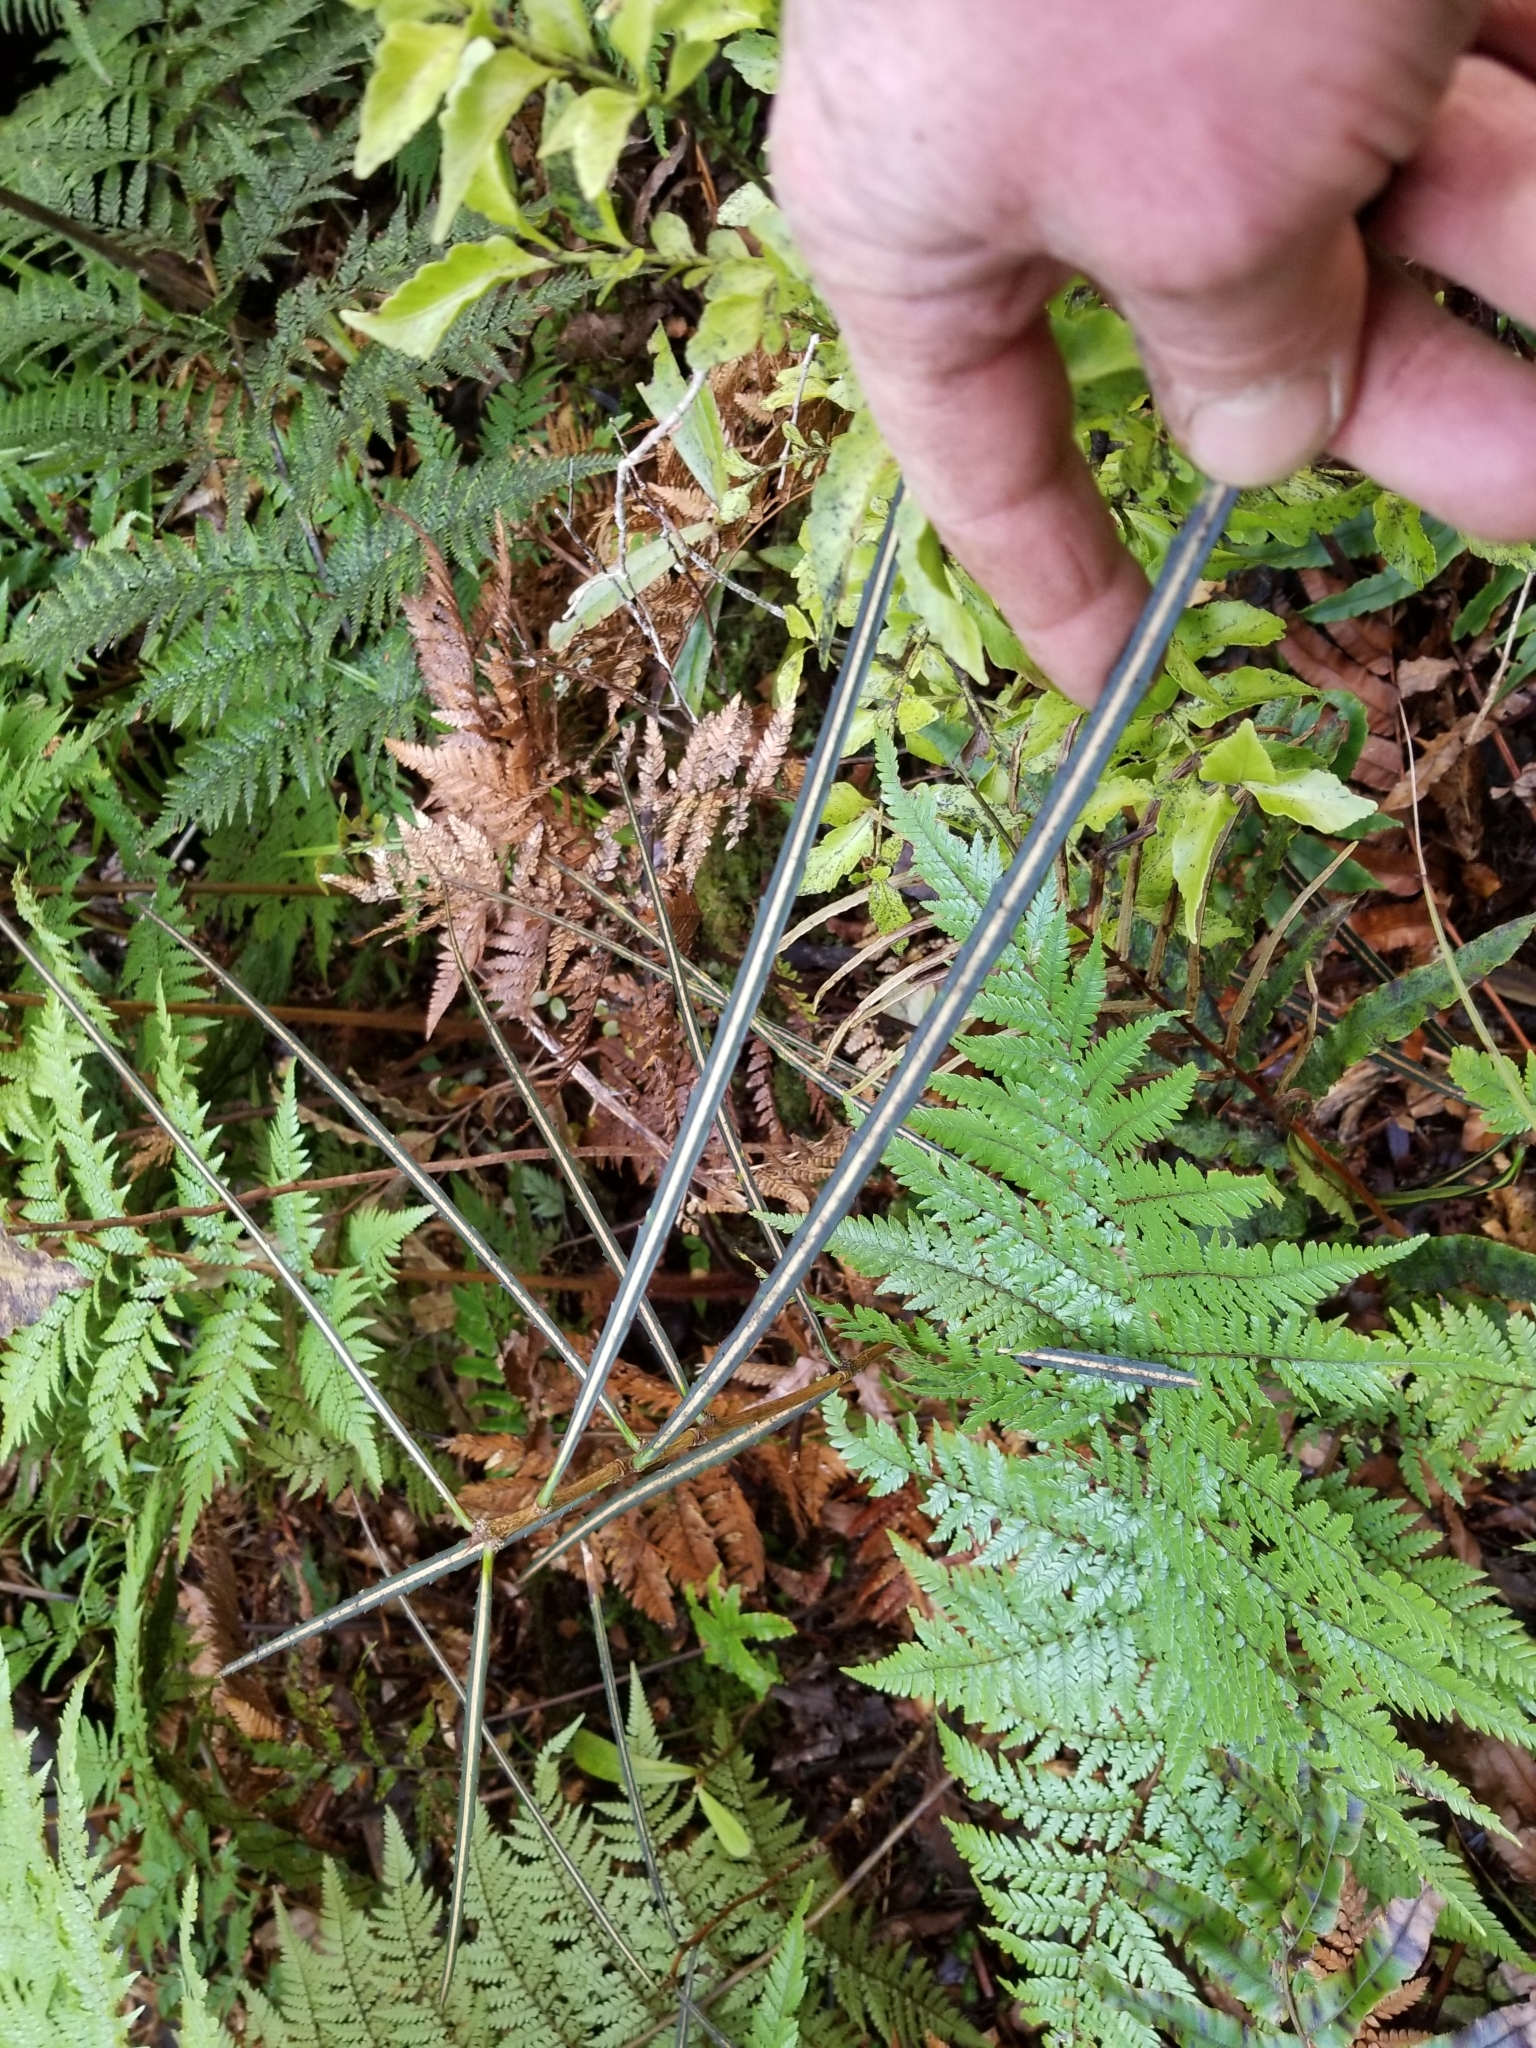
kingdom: Plantae
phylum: Tracheophyta
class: Magnoliopsida
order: Apiales
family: Araliaceae
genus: Pseudopanax
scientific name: Pseudopanax crassifolius
